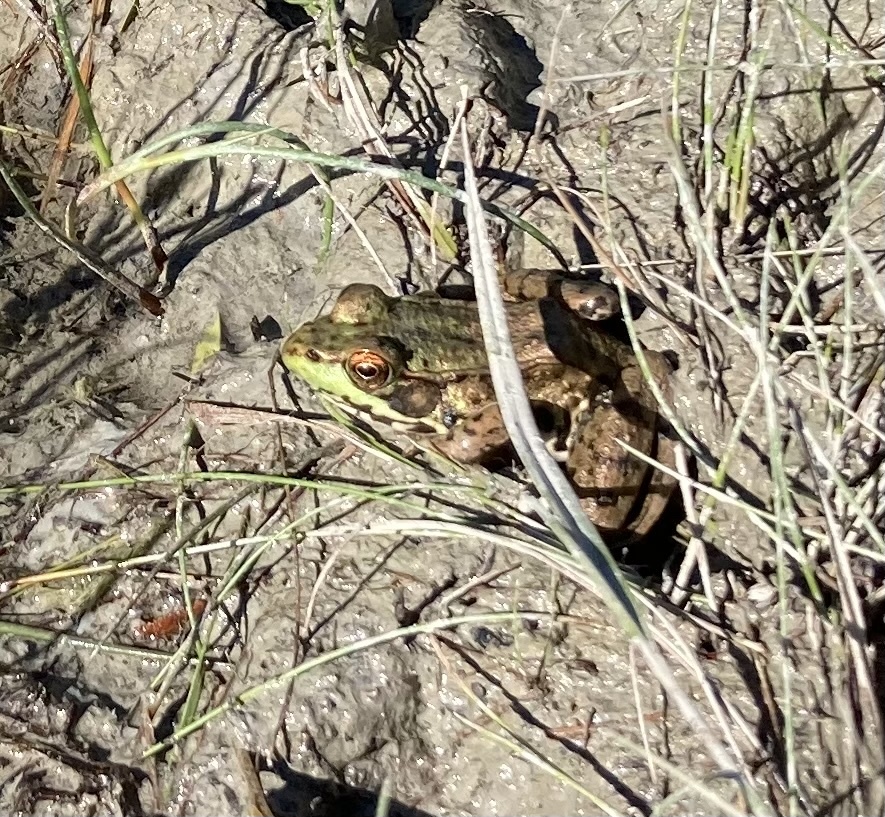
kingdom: Animalia
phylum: Chordata
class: Amphibia
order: Anura
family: Ranidae
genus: Lithobates
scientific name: Lithobates clamitans
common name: Green frog
